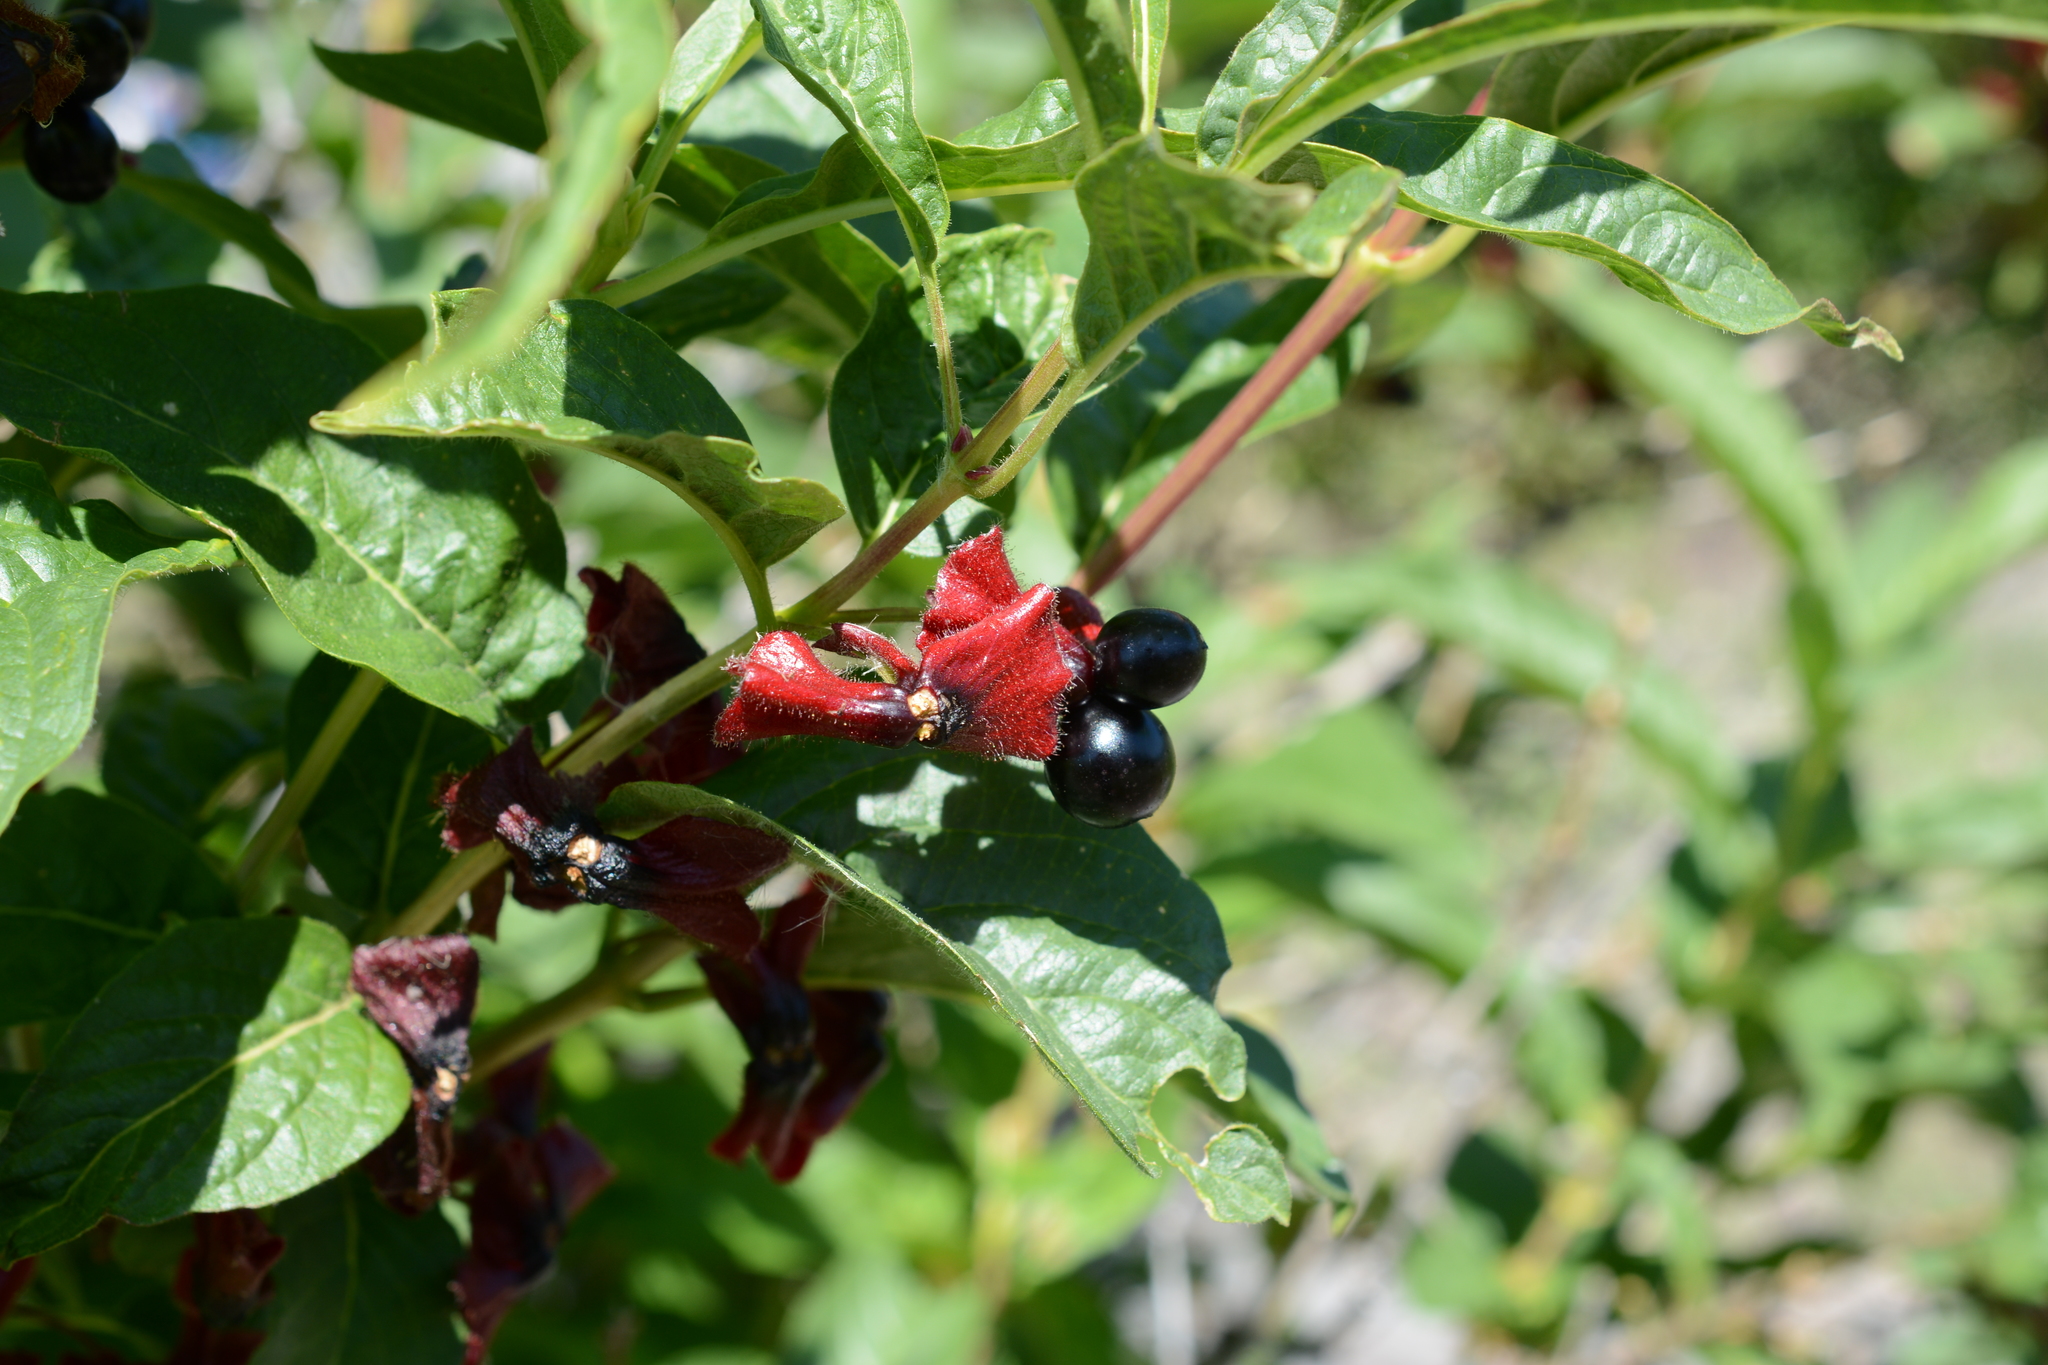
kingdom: Plantae
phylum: Tracheophyta
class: Magnoliopsida
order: Dipsacales
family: Caprifoliaceae
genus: Lonicera
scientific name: Lonicera involucrata
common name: Californian honeysuckle
